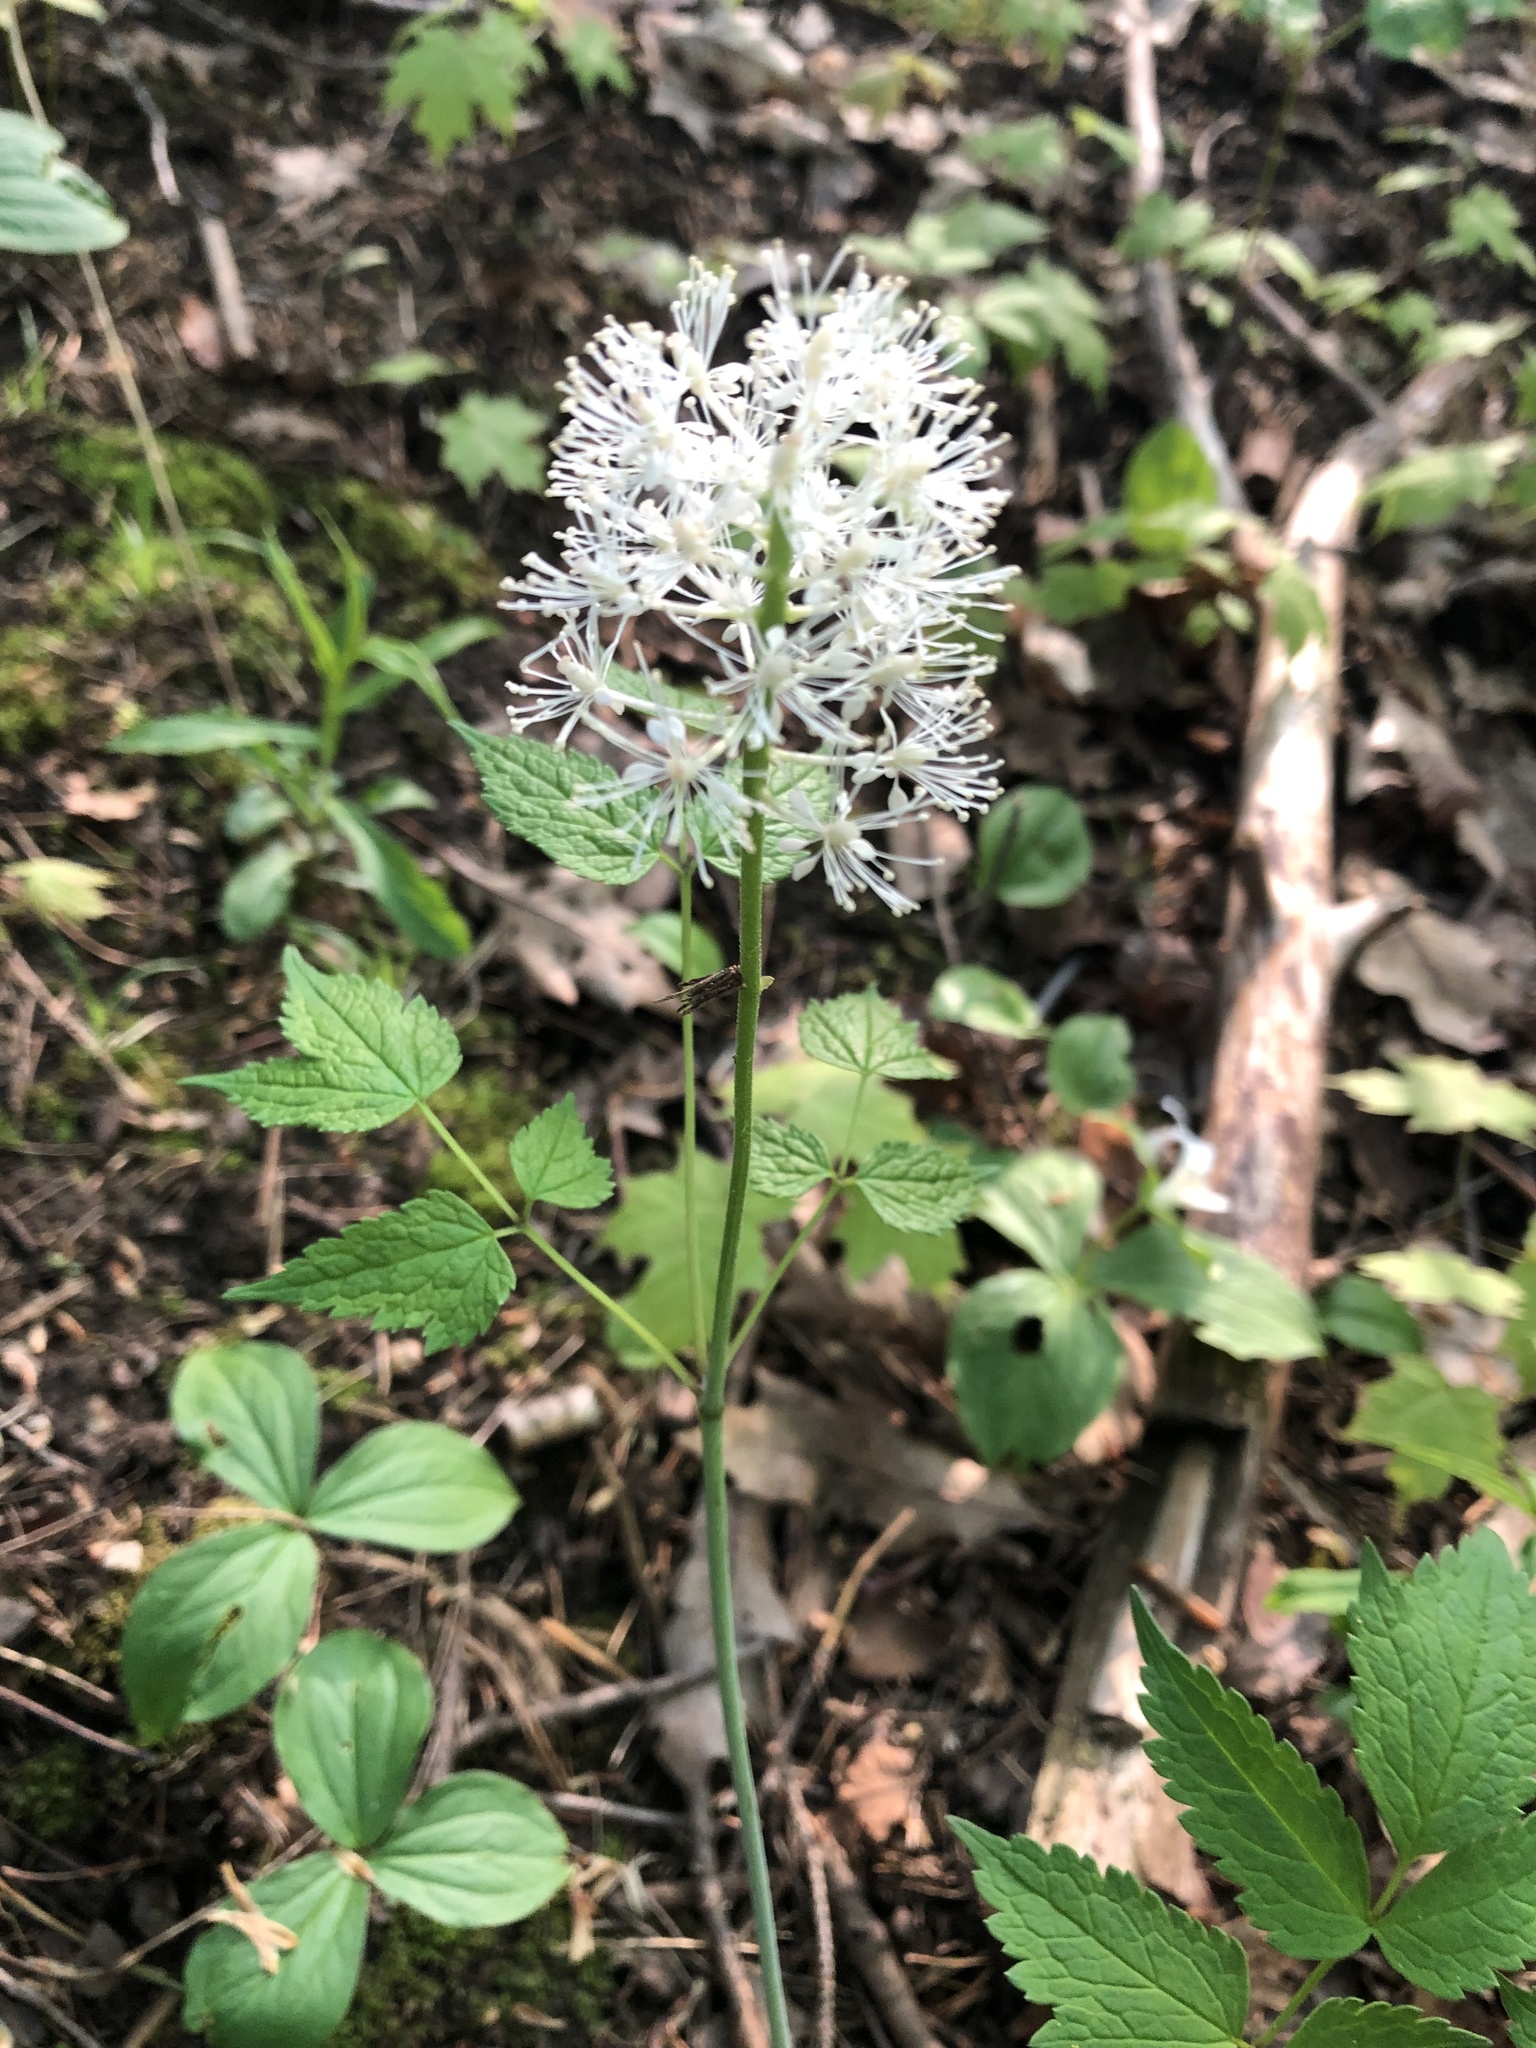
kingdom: Plantae
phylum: Tracheophyta
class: Magnoliopsida
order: Ranunculales
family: Ranunculaceae
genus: Actaea
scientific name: Actaea rubra
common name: Red baneberry
